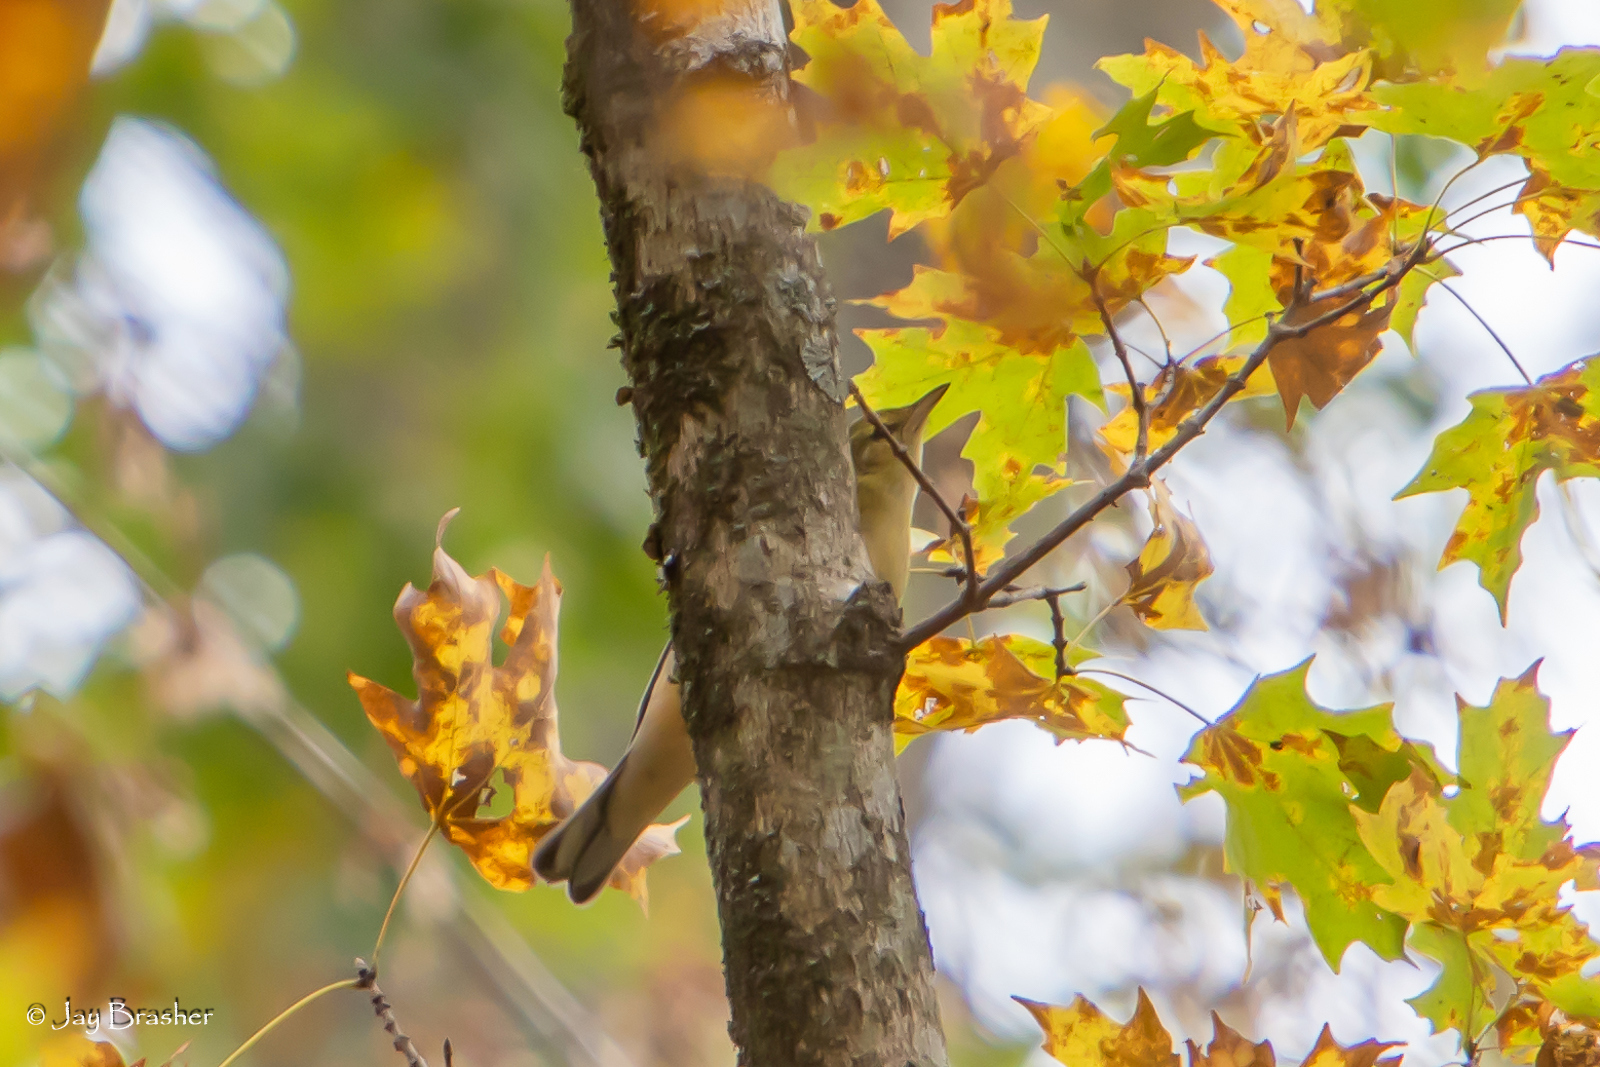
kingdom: Animalia
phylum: Chordata
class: Aves
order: Passeriformes
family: Parulidae
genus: Setophaga
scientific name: Setophaga castanea
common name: Bay-breasted warbler
